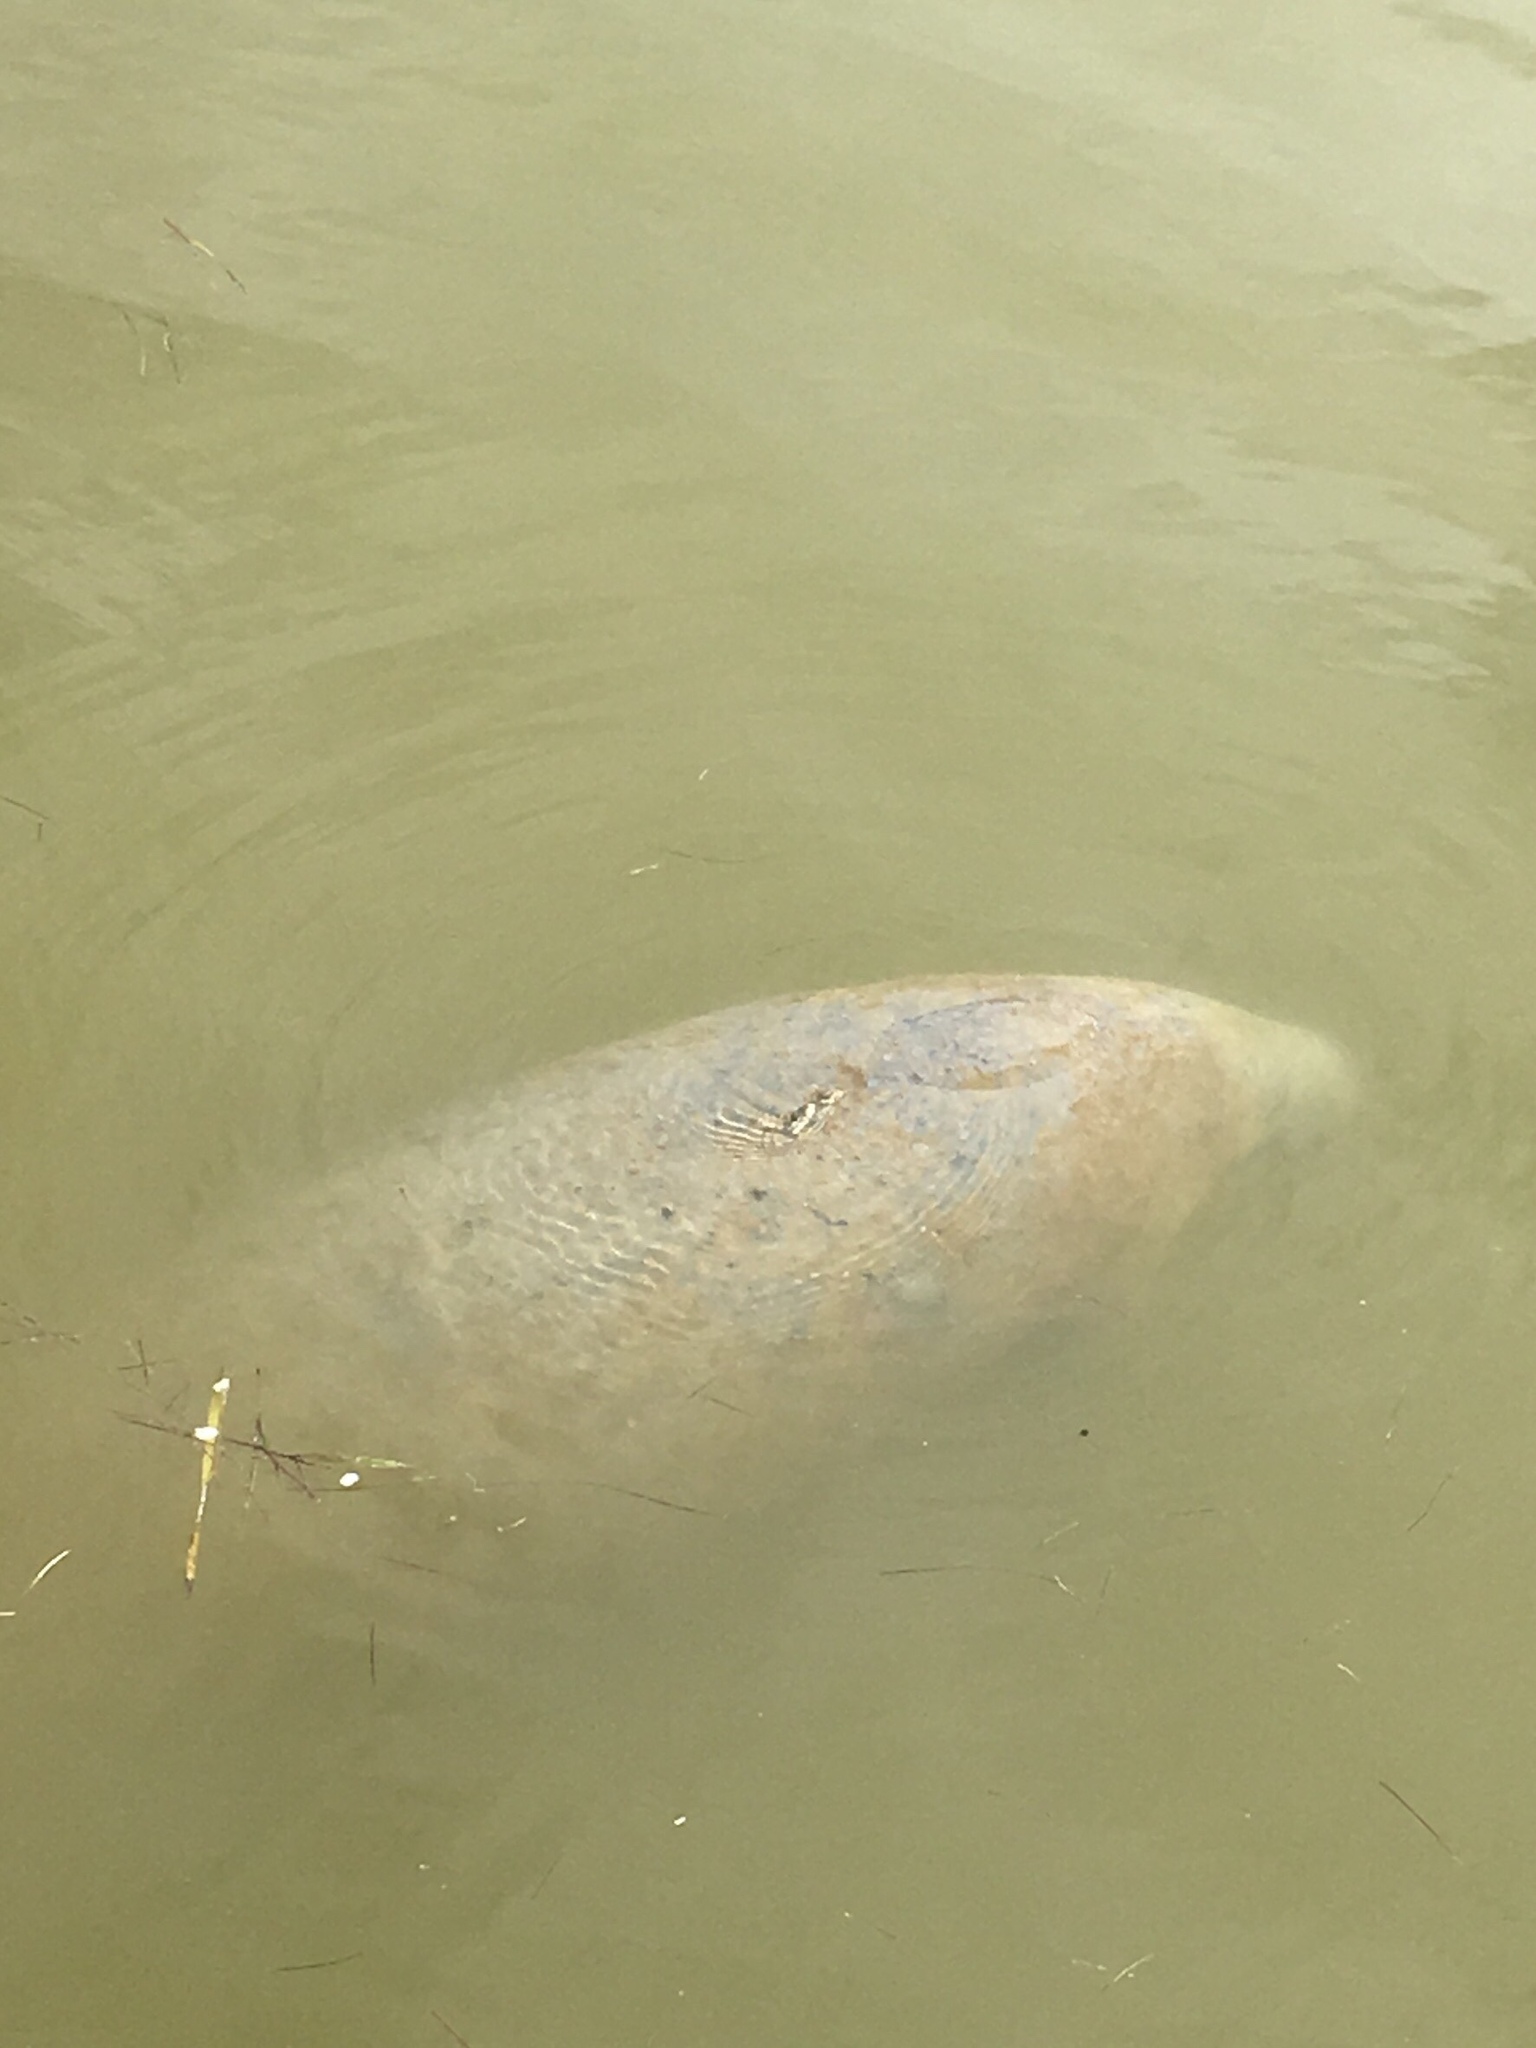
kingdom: Animalia
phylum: Chordata
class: Mammalia
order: Sirenia
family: Trichechidae
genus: Trichechus
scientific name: Trichechus manatus
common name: West indian manatee
